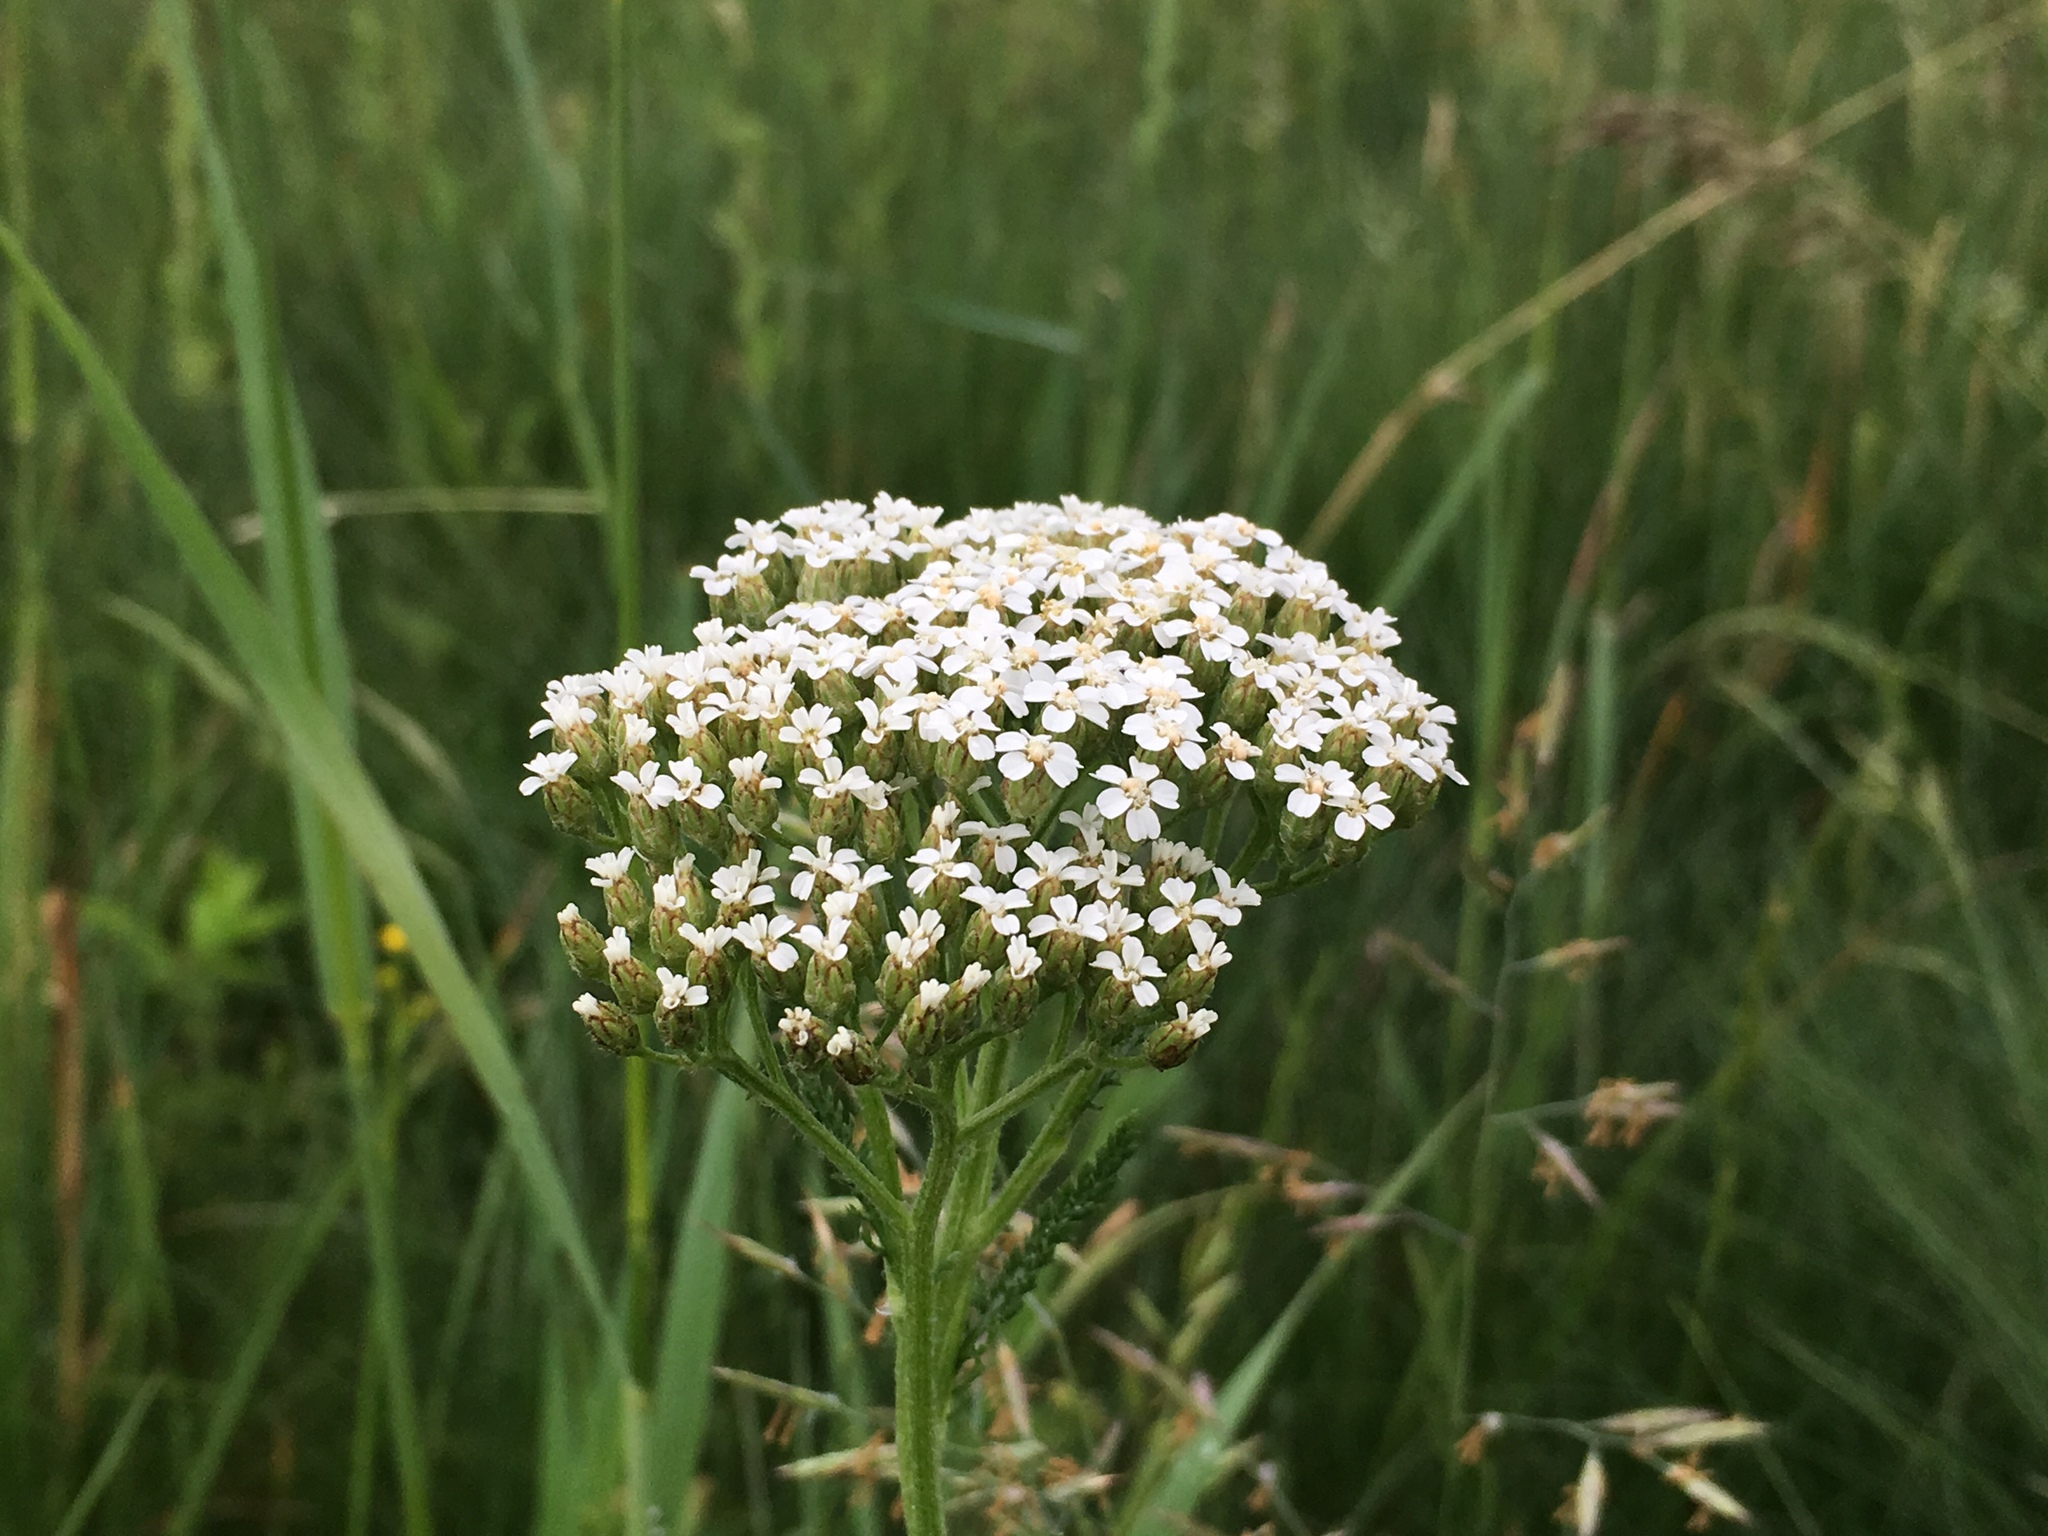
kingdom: Plantae
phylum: Tracheophyta
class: Magnoliopsida
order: Asterales
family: Asteraceae
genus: Achillea
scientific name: Achillea millefolium
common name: Yarrow
